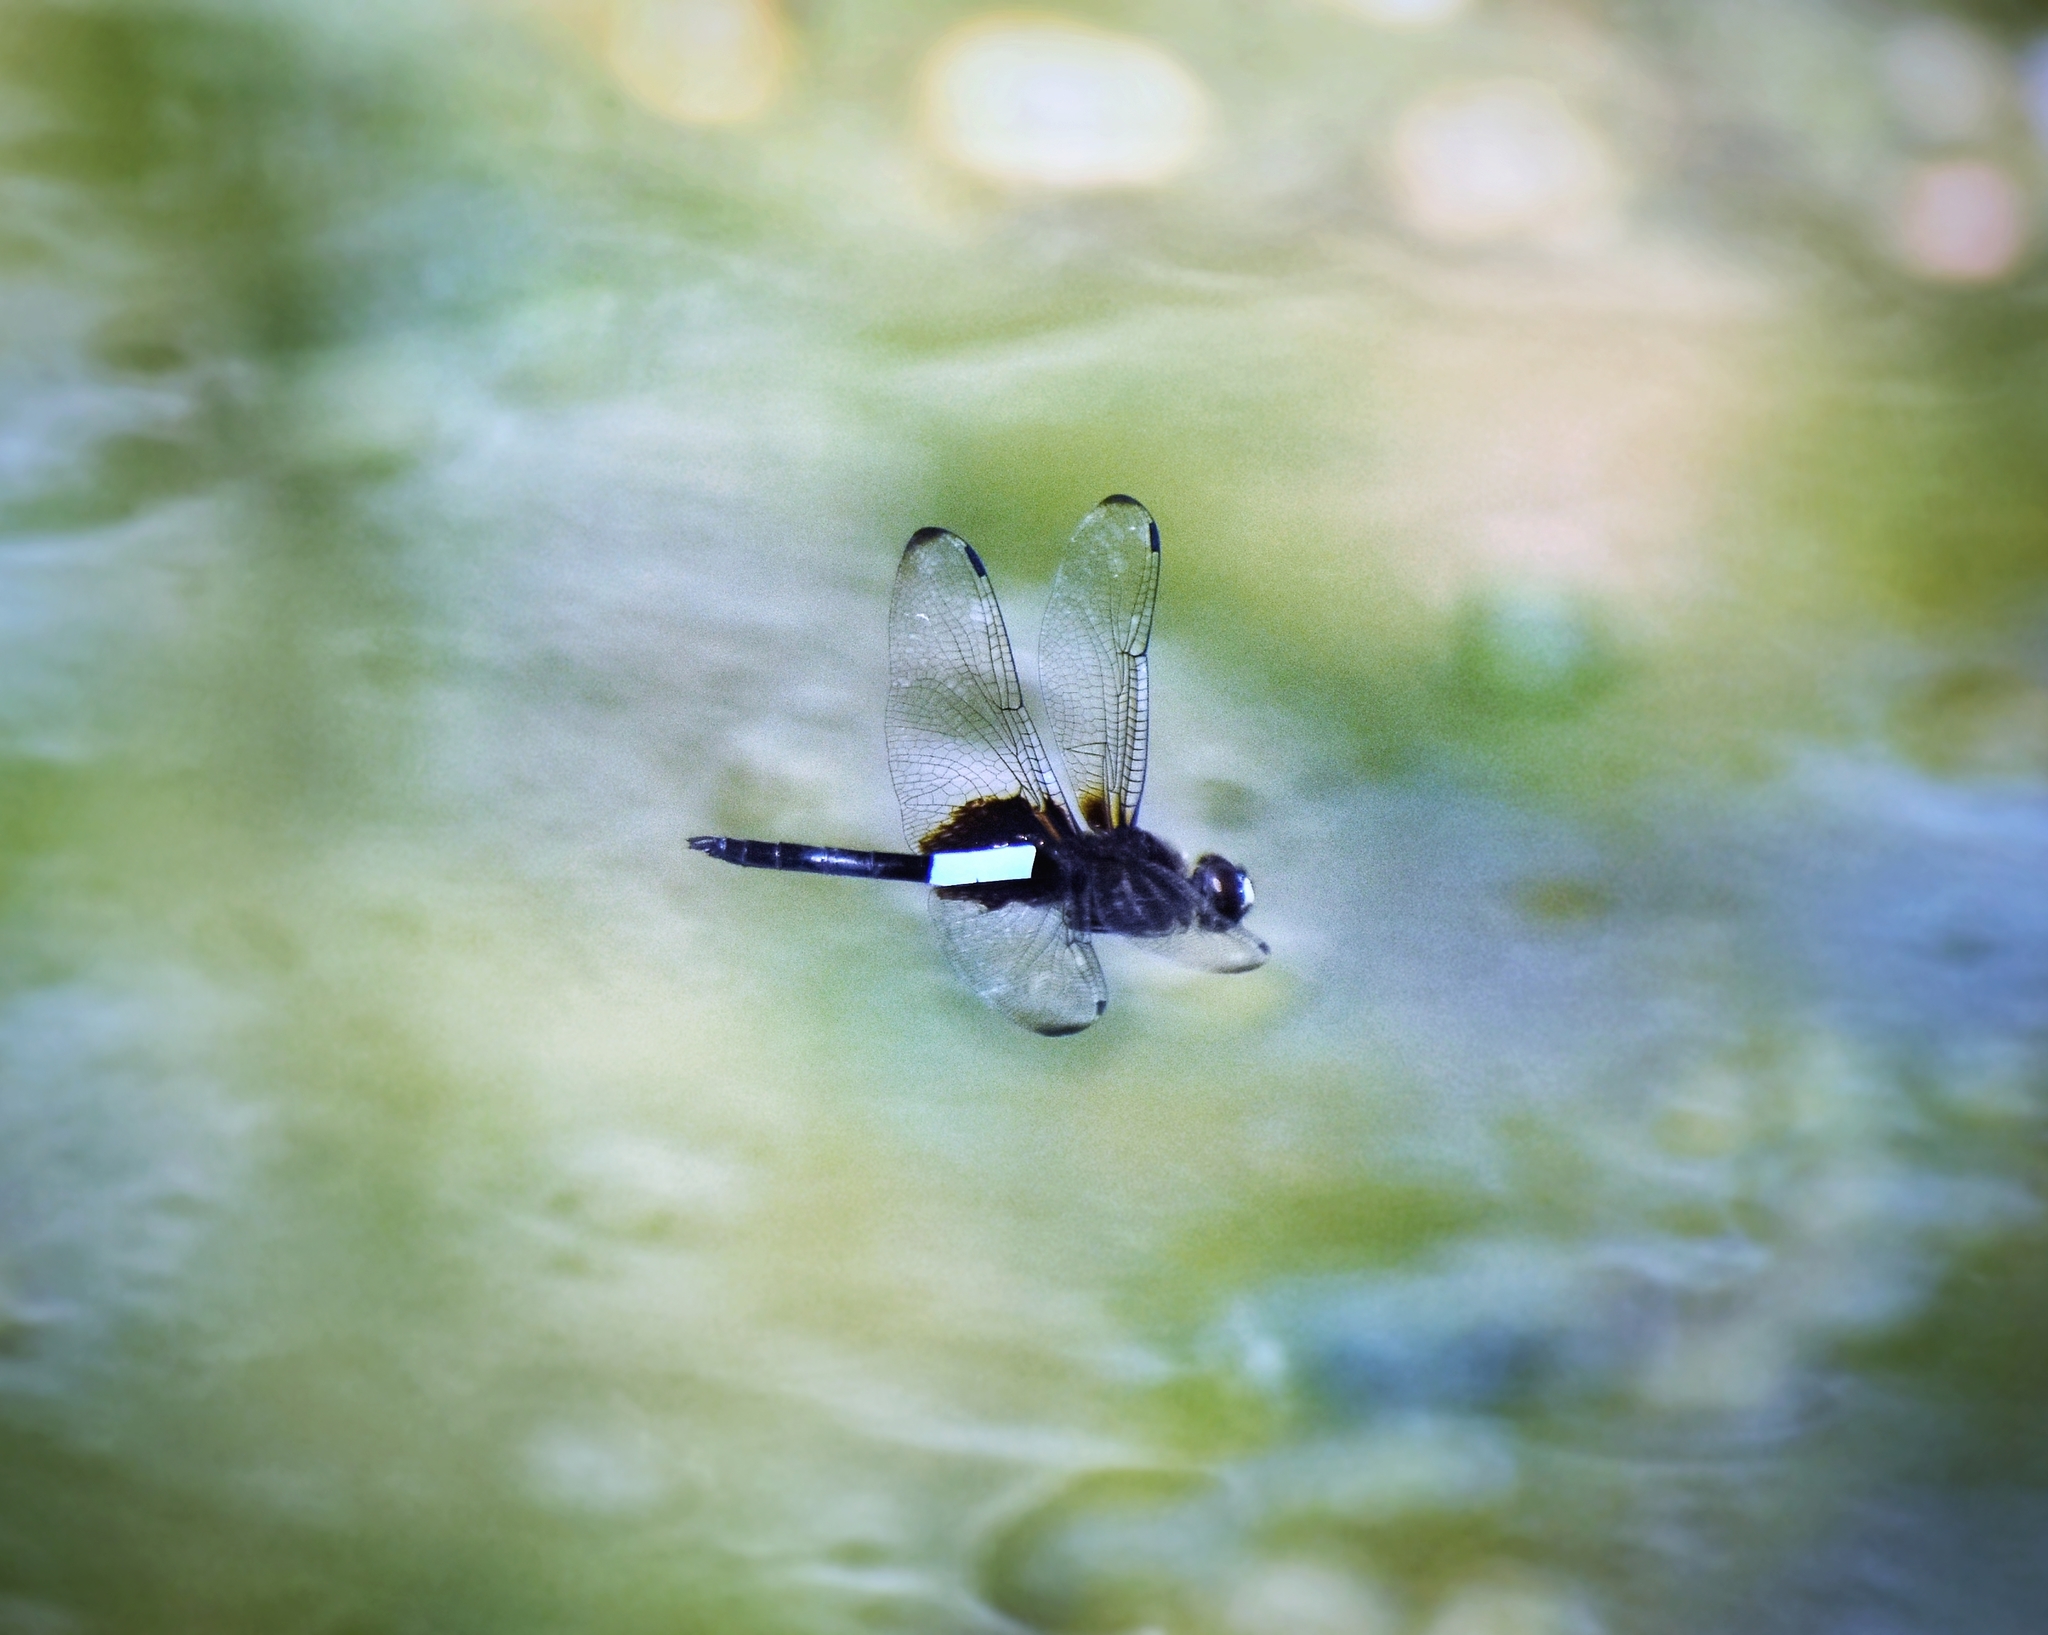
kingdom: Animalia
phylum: Arthropoda
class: Insecta
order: Odonata
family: Libellulidae
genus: Pseudothemis
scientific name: Pseudothemis zonata
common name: Pied skimmer
